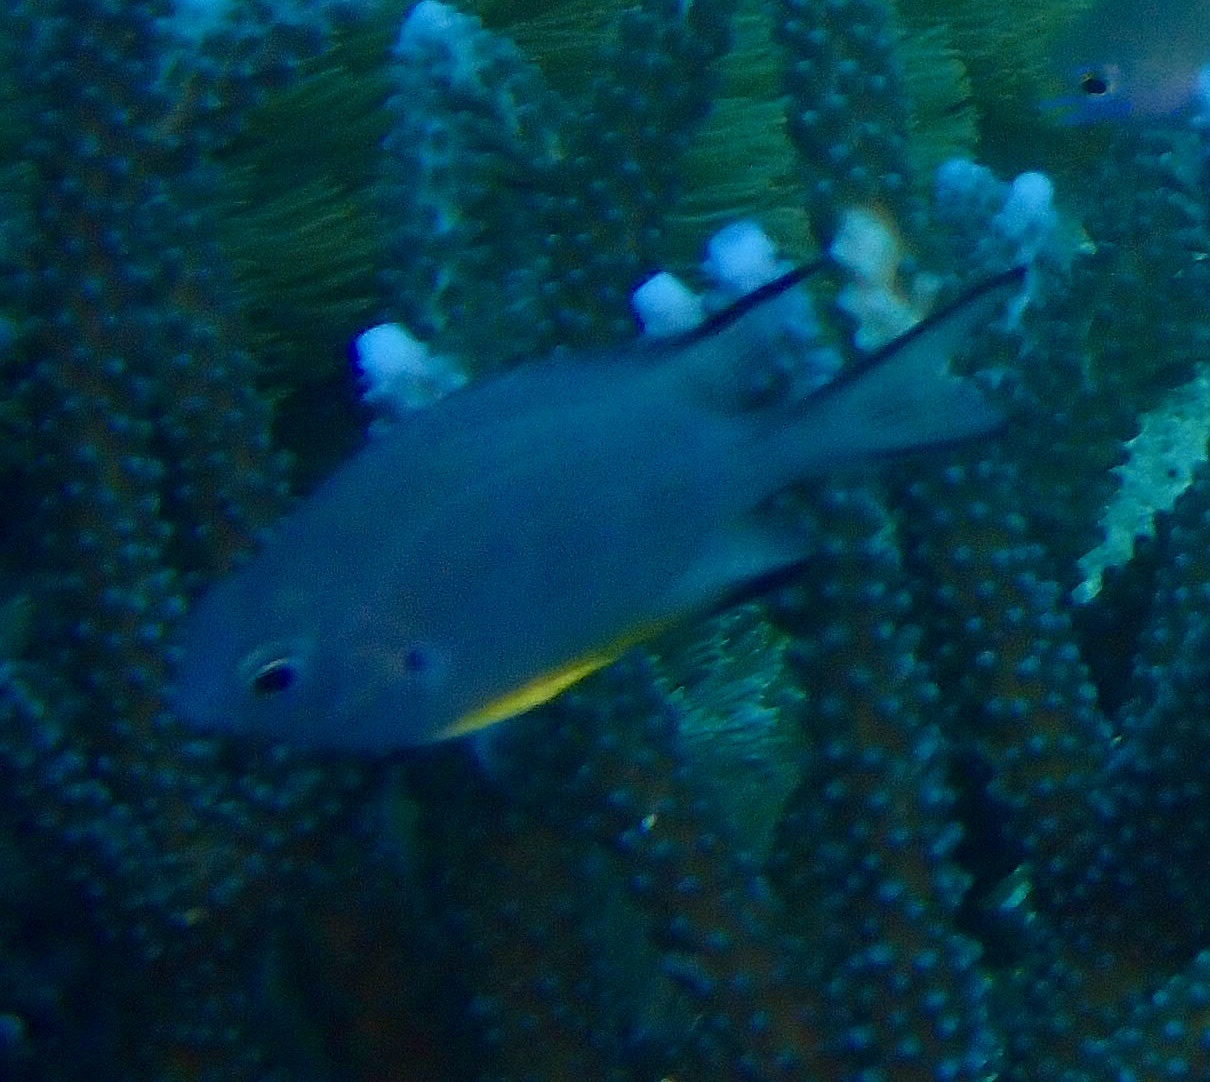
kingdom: Animalia
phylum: Chordata
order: Perciformes
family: Pomacentridae
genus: Amblyglyphidodon
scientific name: Amblyglyphidodon leucogaster
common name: White-belly damsel
